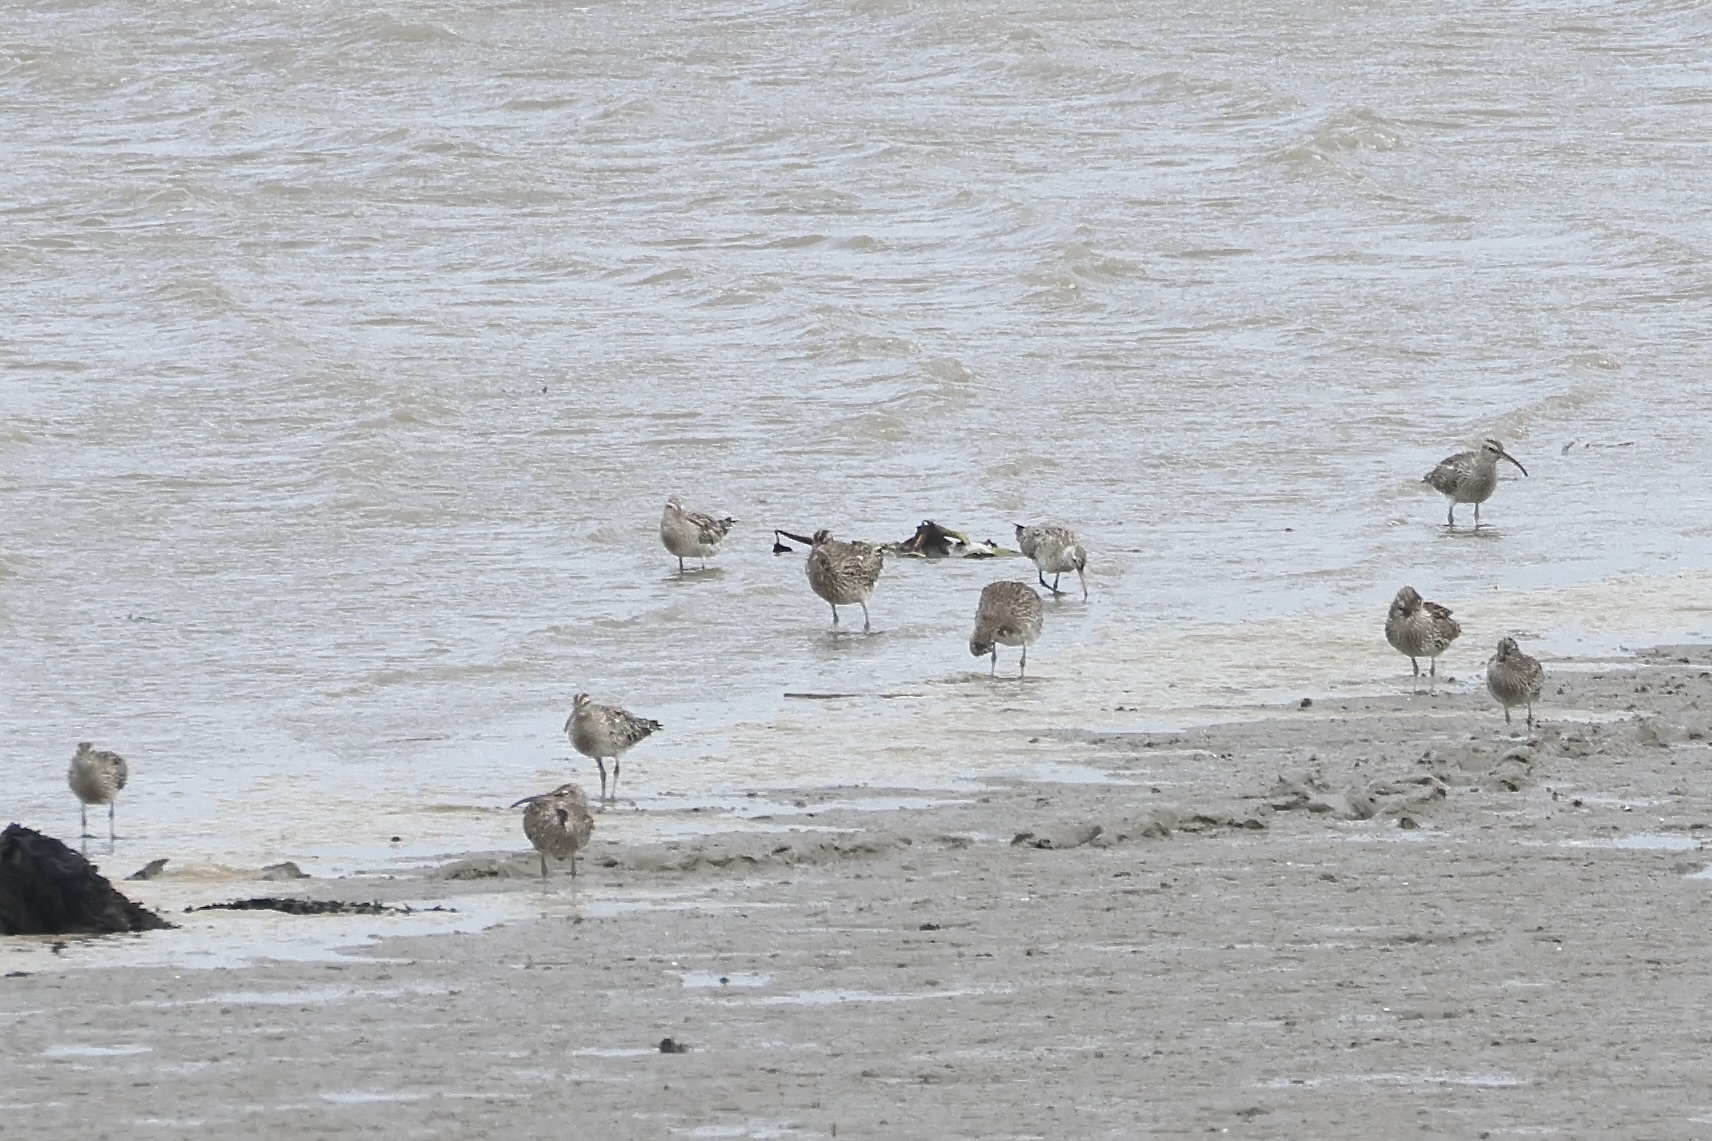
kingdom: Animalia
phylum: Chordata
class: Aves
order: Charadriiformes
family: Scolopacidae
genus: Limosa
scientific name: Limosa lapponica
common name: Bar-tailed godwit
